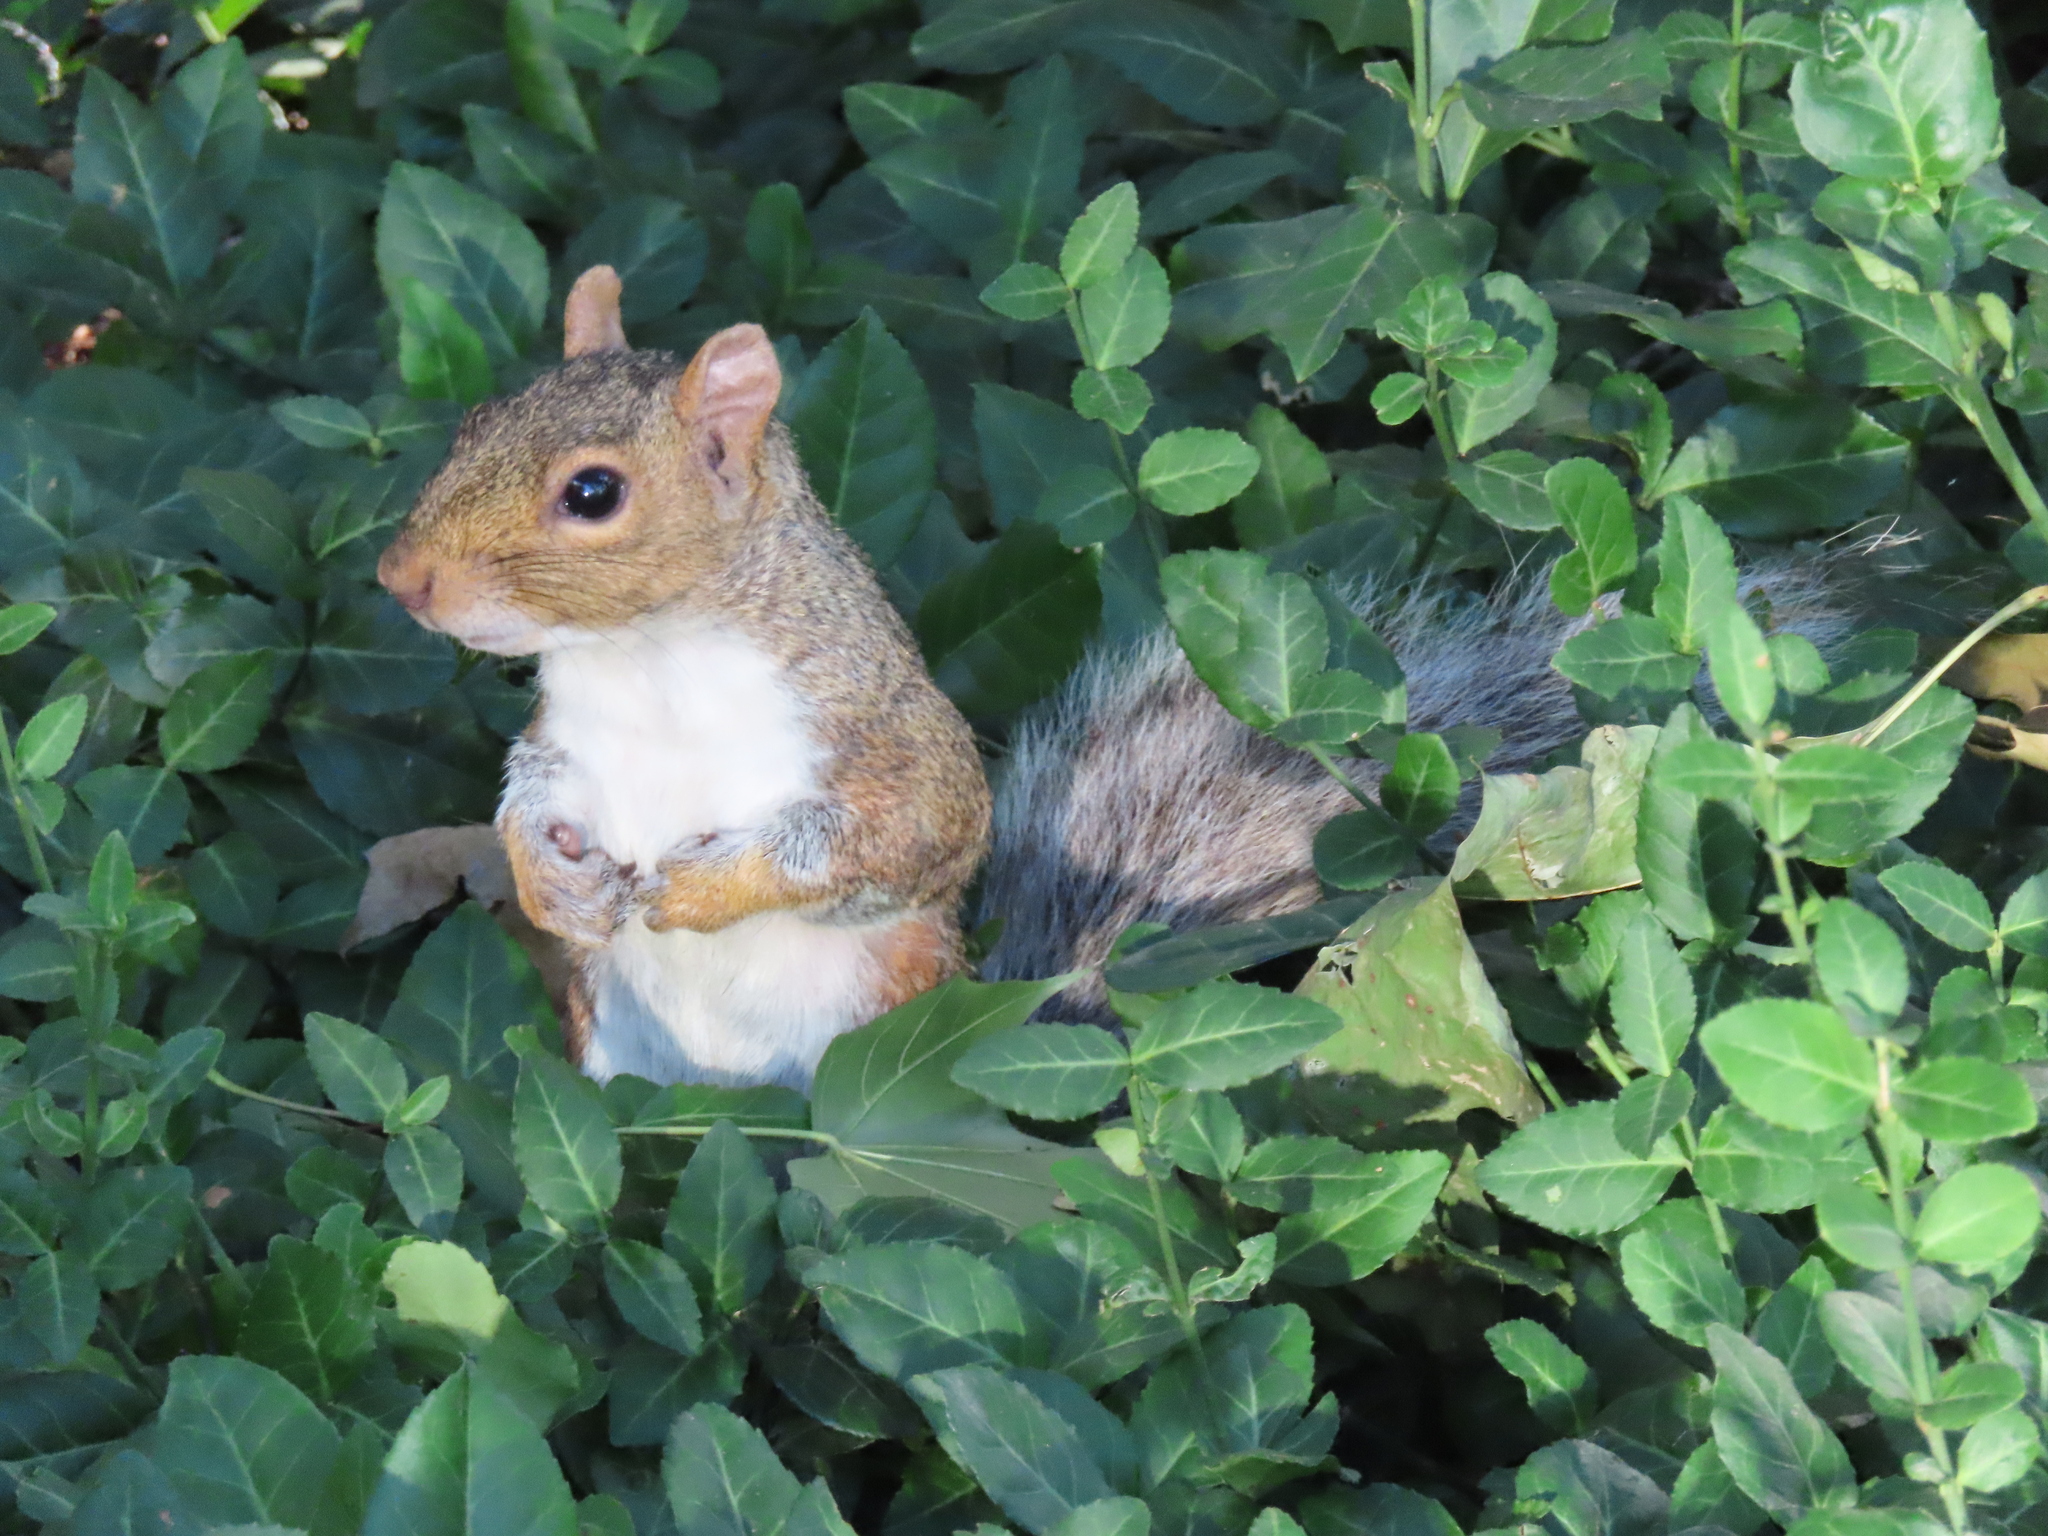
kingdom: Animalia
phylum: Chordata
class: Mammalia
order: Rodentia
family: Sciuridae
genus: Sciurus
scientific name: Sciurus carolinensis
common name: Eastern gray squirrel
